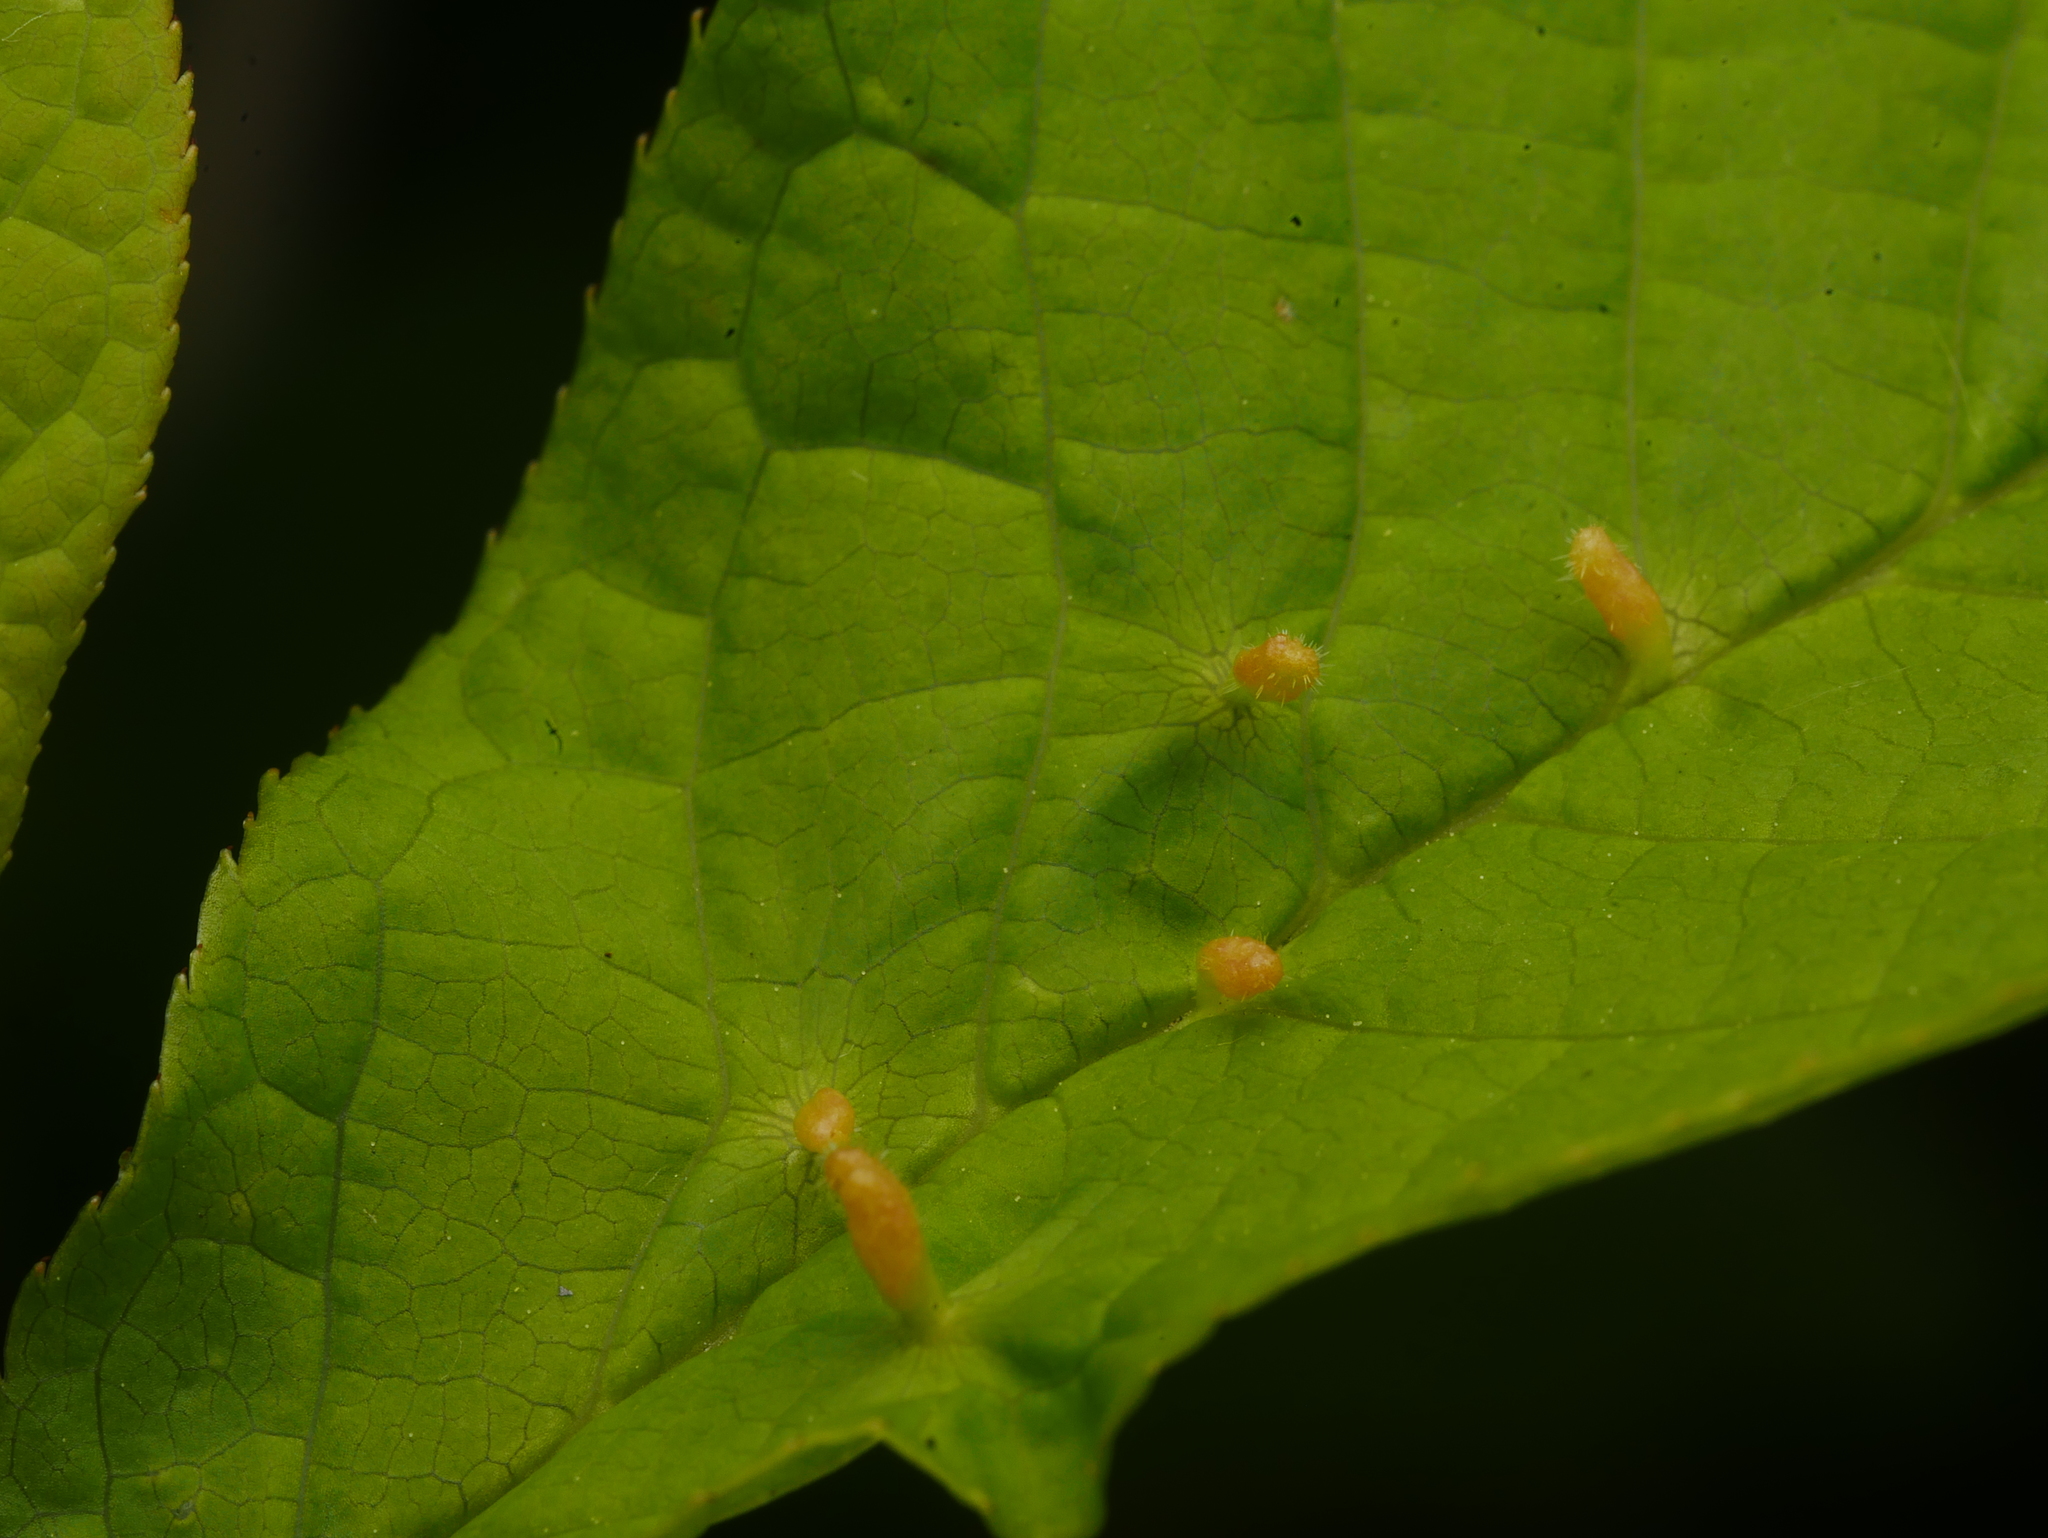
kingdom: Animalia
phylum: Arthropoda
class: Arachnida
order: Trombidiformes
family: Eriophyidae
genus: Phyllocoptes
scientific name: Phyllocoptes eupadi
